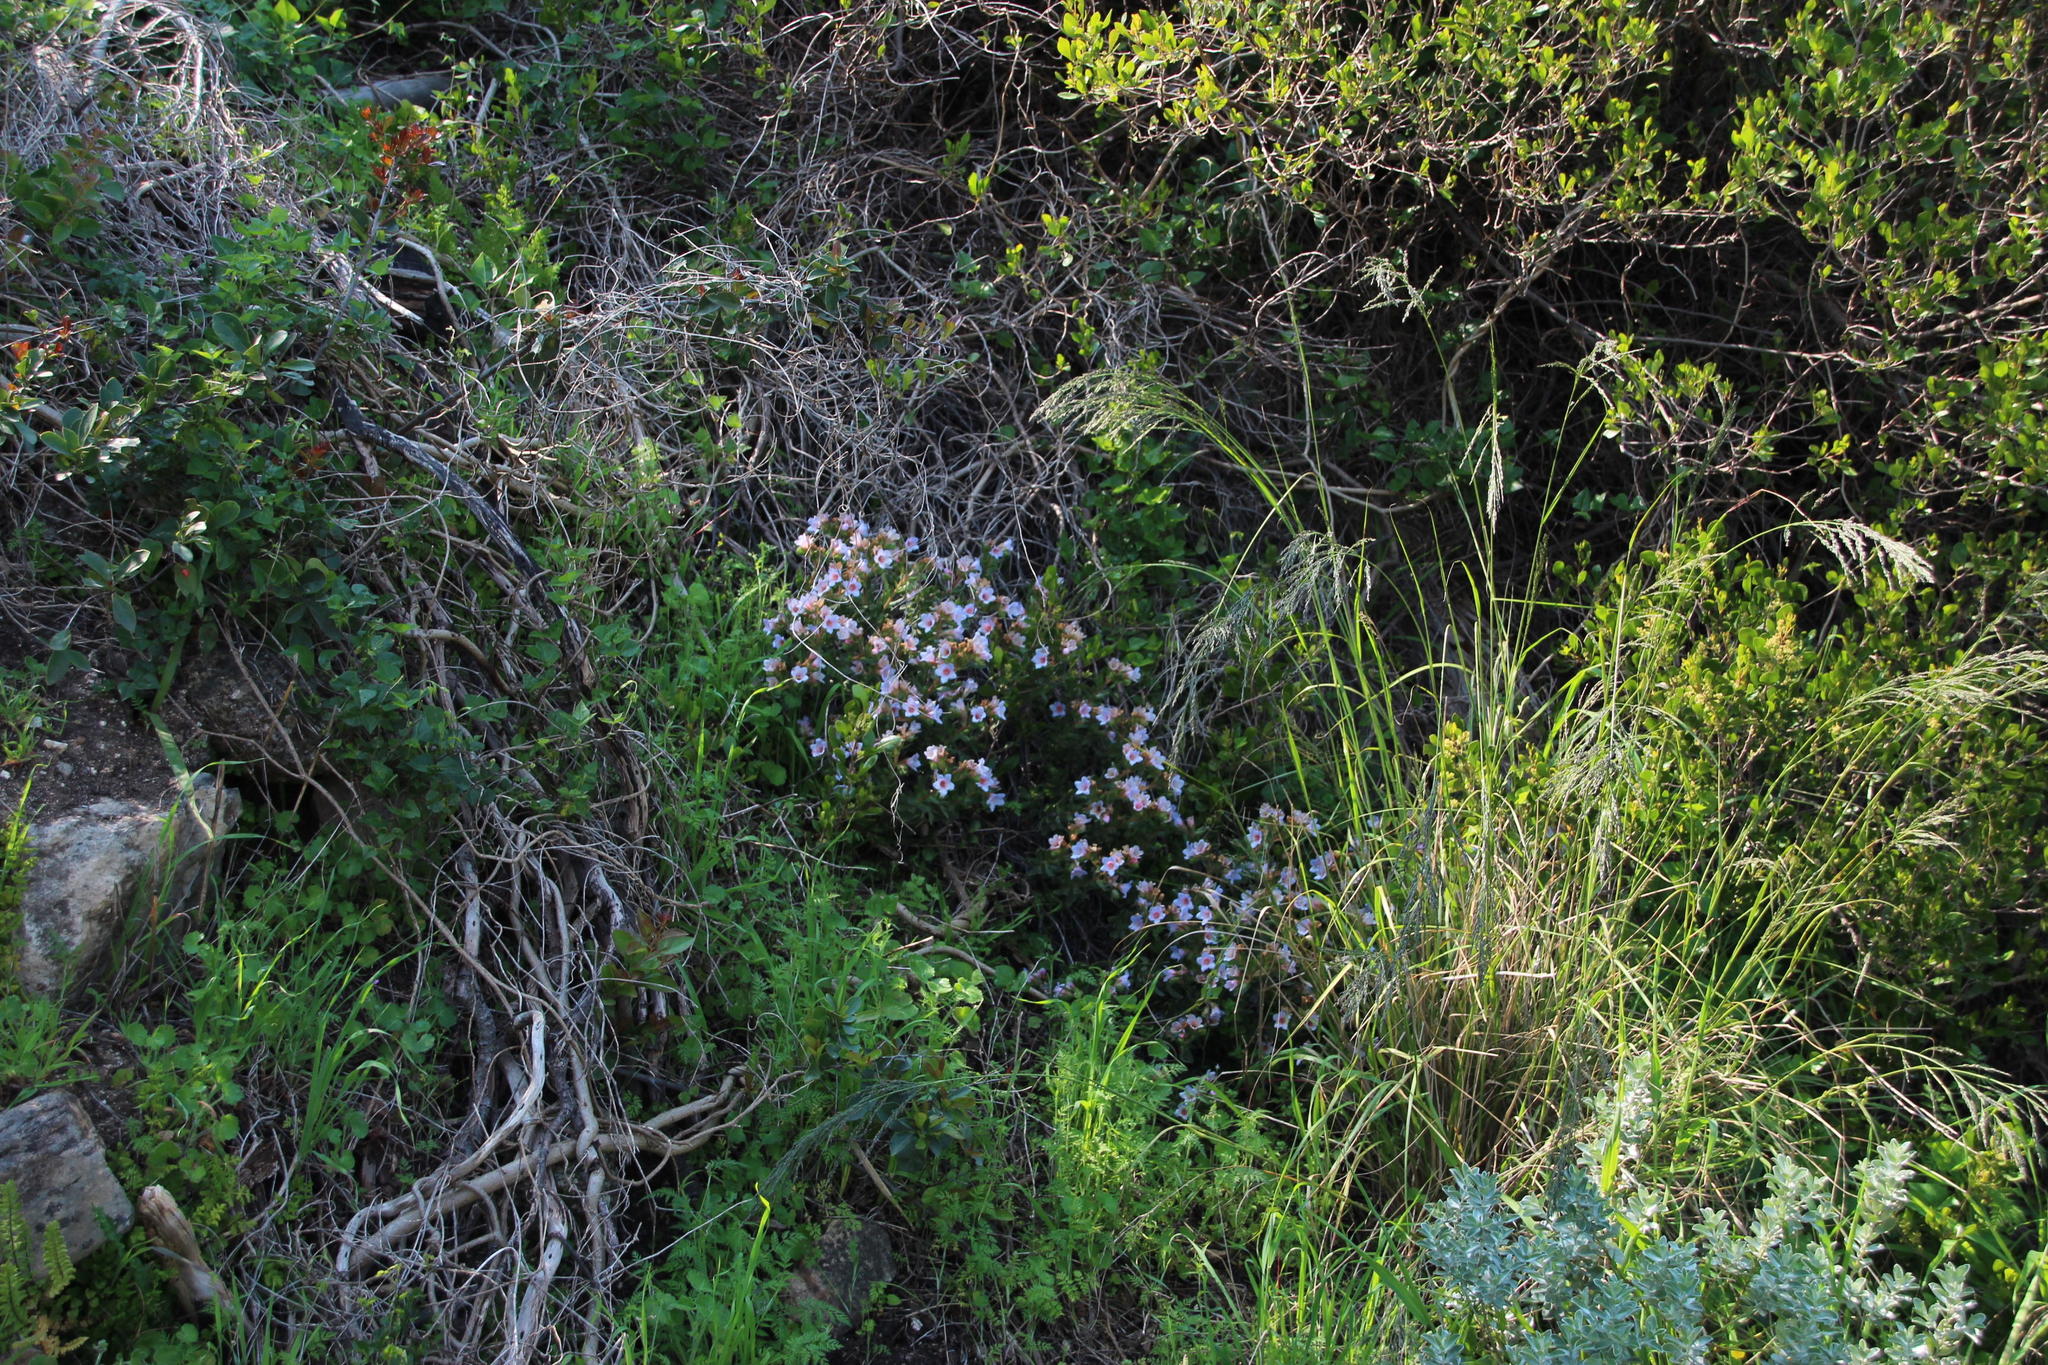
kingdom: Plantae
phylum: Tracheophyta
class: Magnoliopsida
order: Boraginales
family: Boraginaceae
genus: Lobostemon
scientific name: Lobostemon fruticosus
